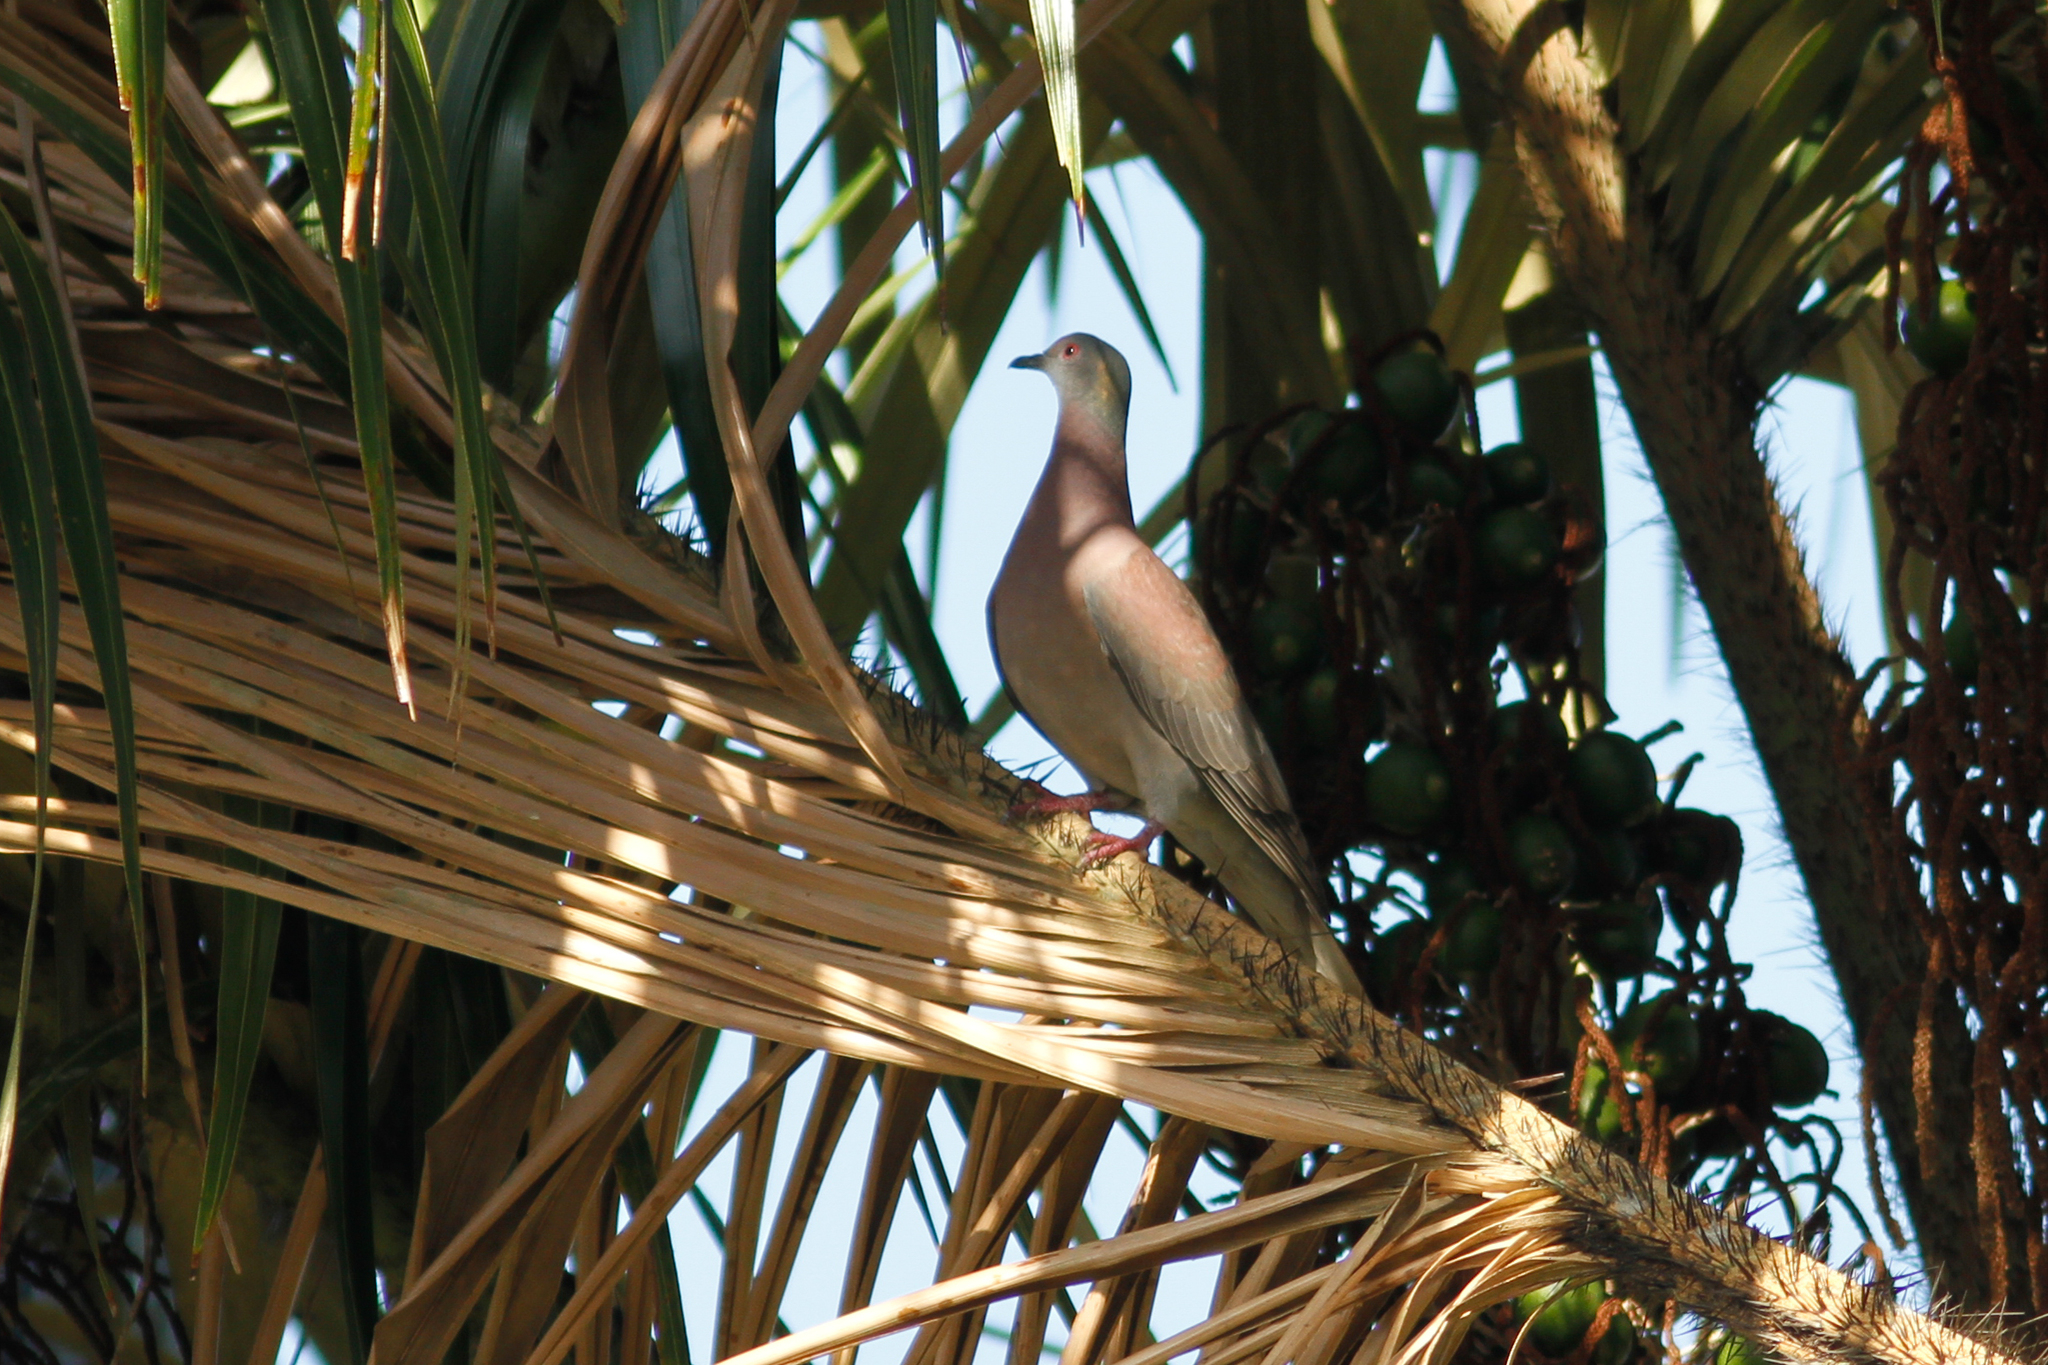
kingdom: Animalia
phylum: Chordata
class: Aves
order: Columbiformes
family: Columbidae
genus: Patagioenas
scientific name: Patagioenas cayennensis
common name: Pale-vented pigeon
